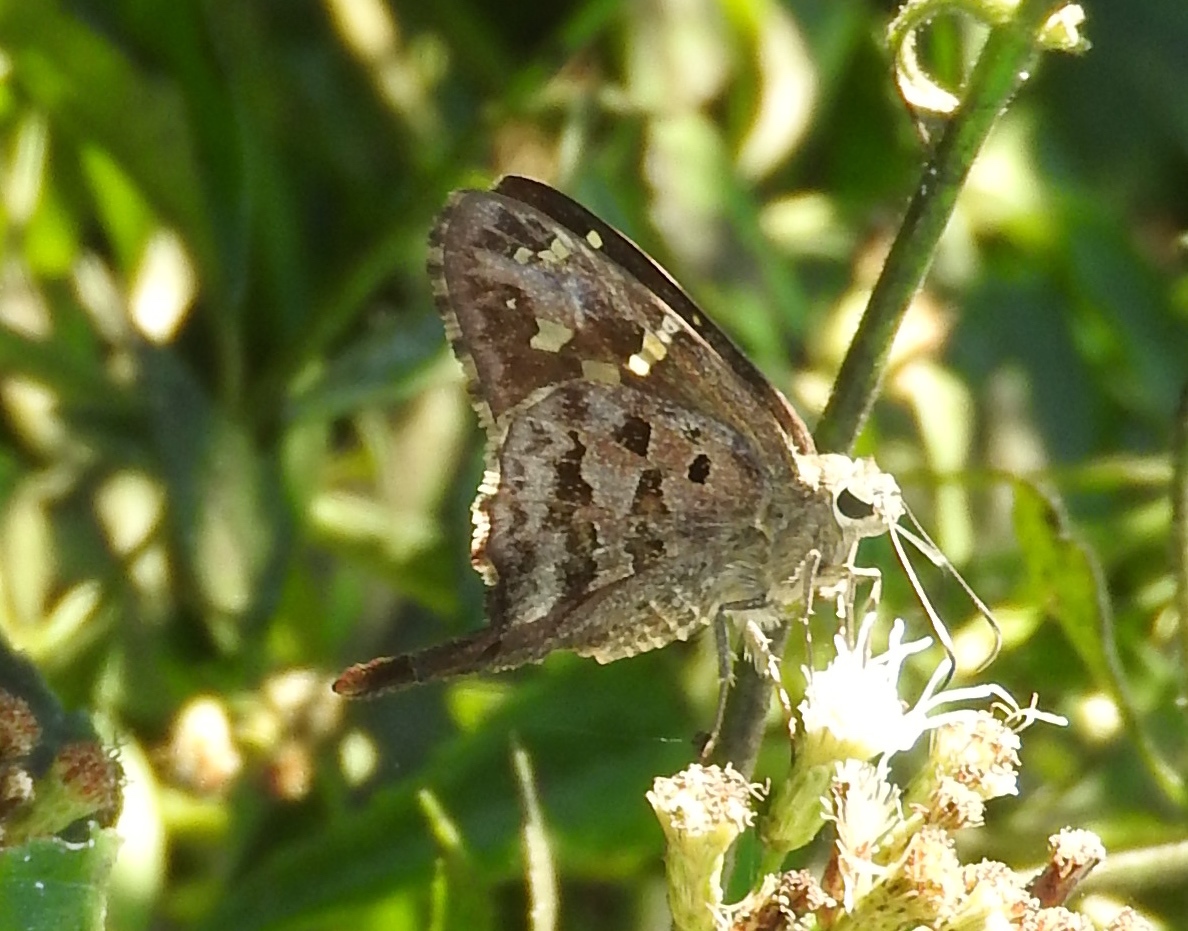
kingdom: Animalia
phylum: Arthropoda
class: Insecta
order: Lepidoptera
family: Hesperiidae
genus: Thorybes
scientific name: Thorybes
